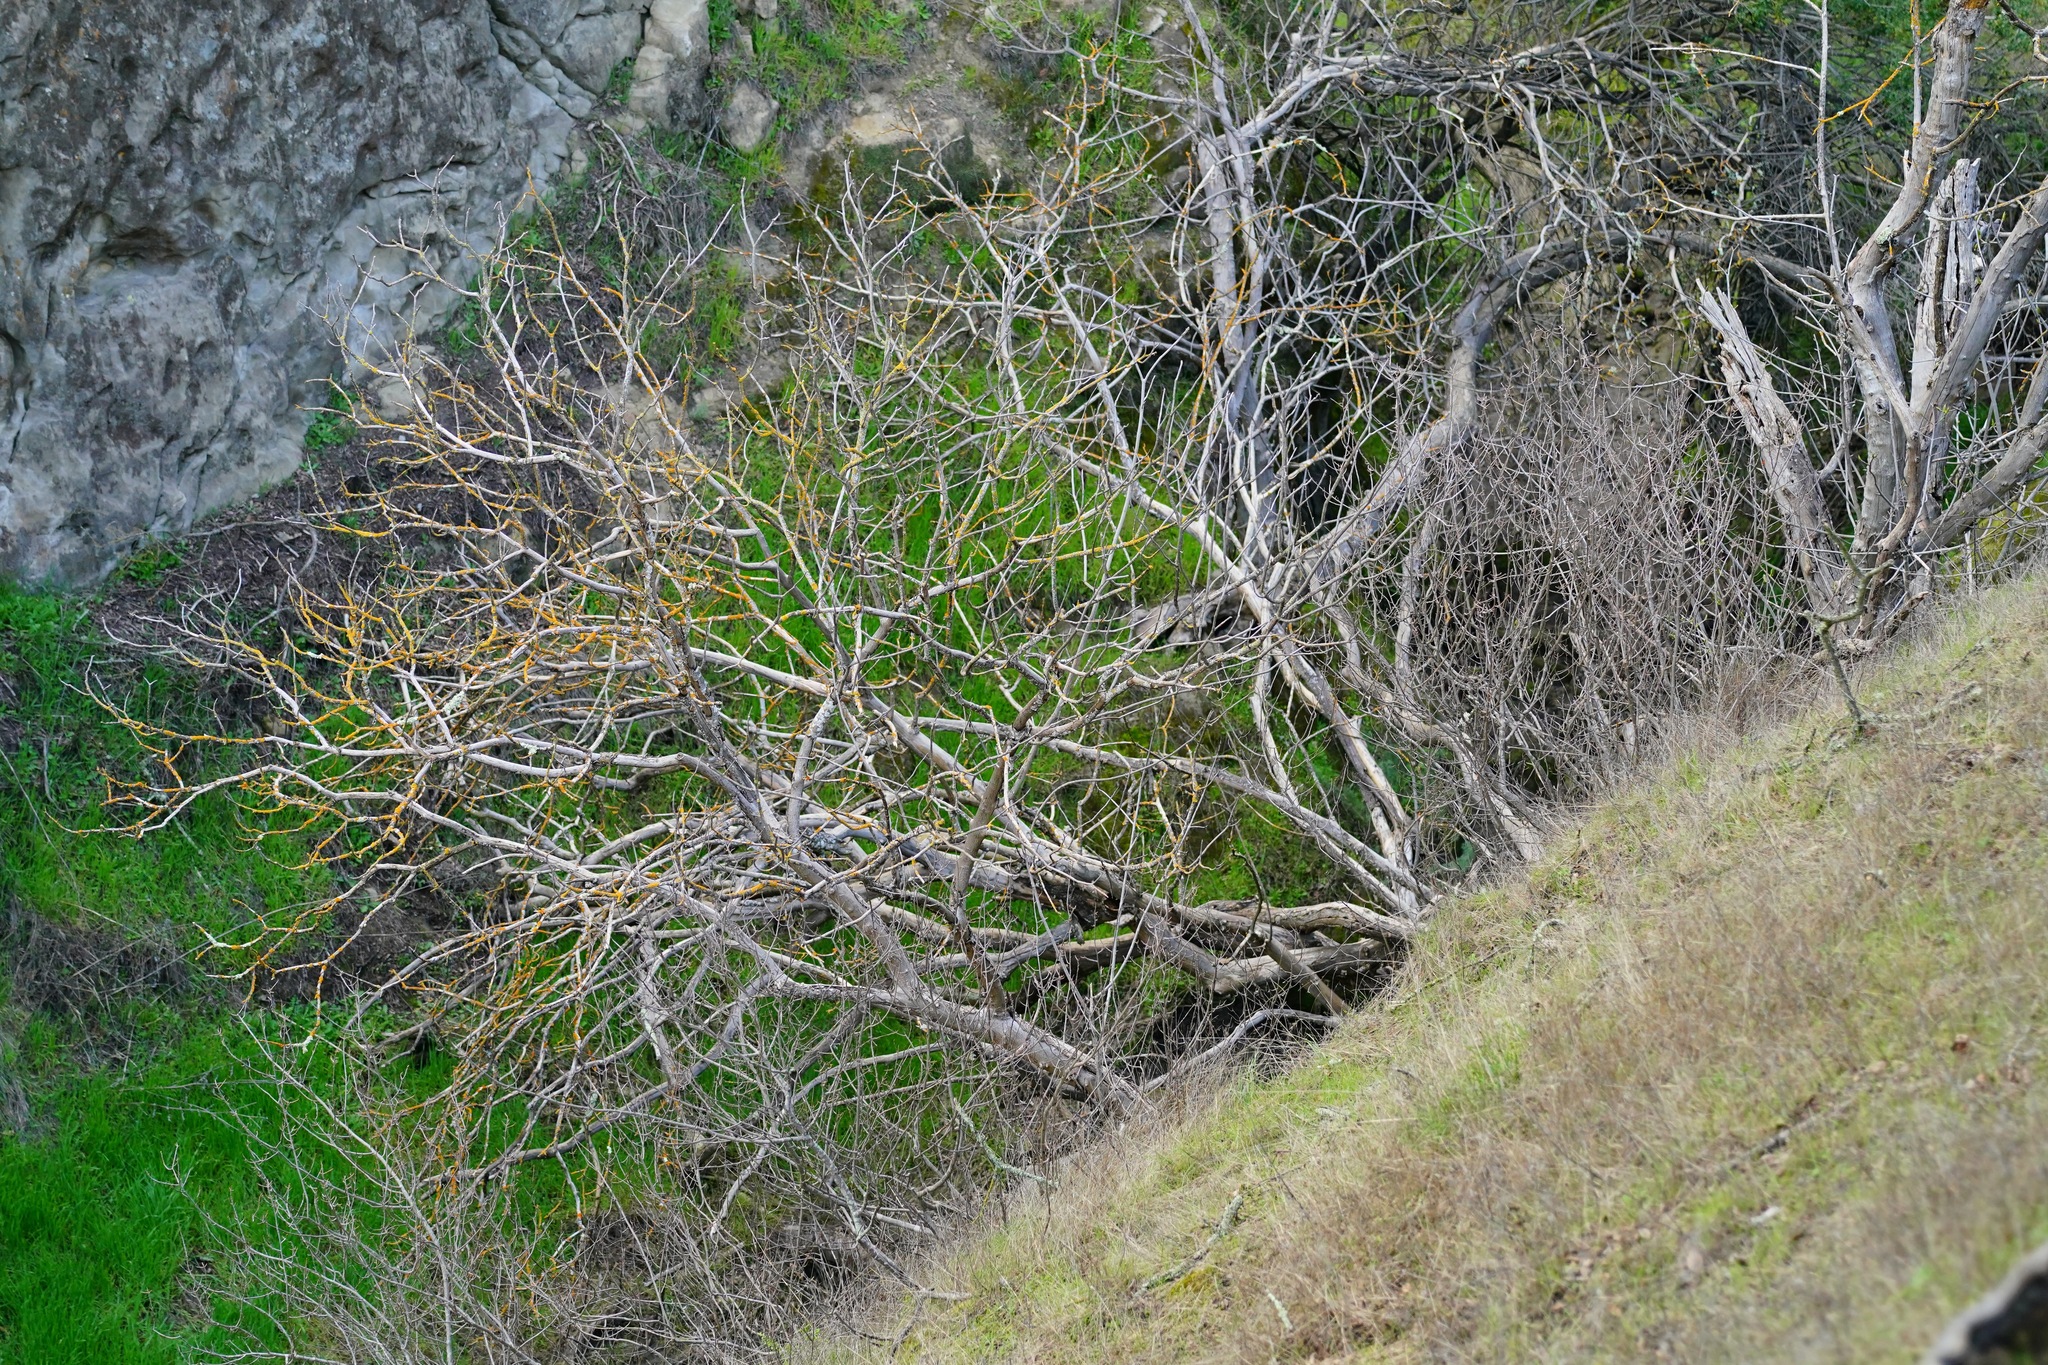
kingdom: Plantae
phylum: Tracheophyta
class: Magnoliopsida
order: Sapindales
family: Sapindaceae
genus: Aesculus
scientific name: Aesculus californica
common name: California buckeye
